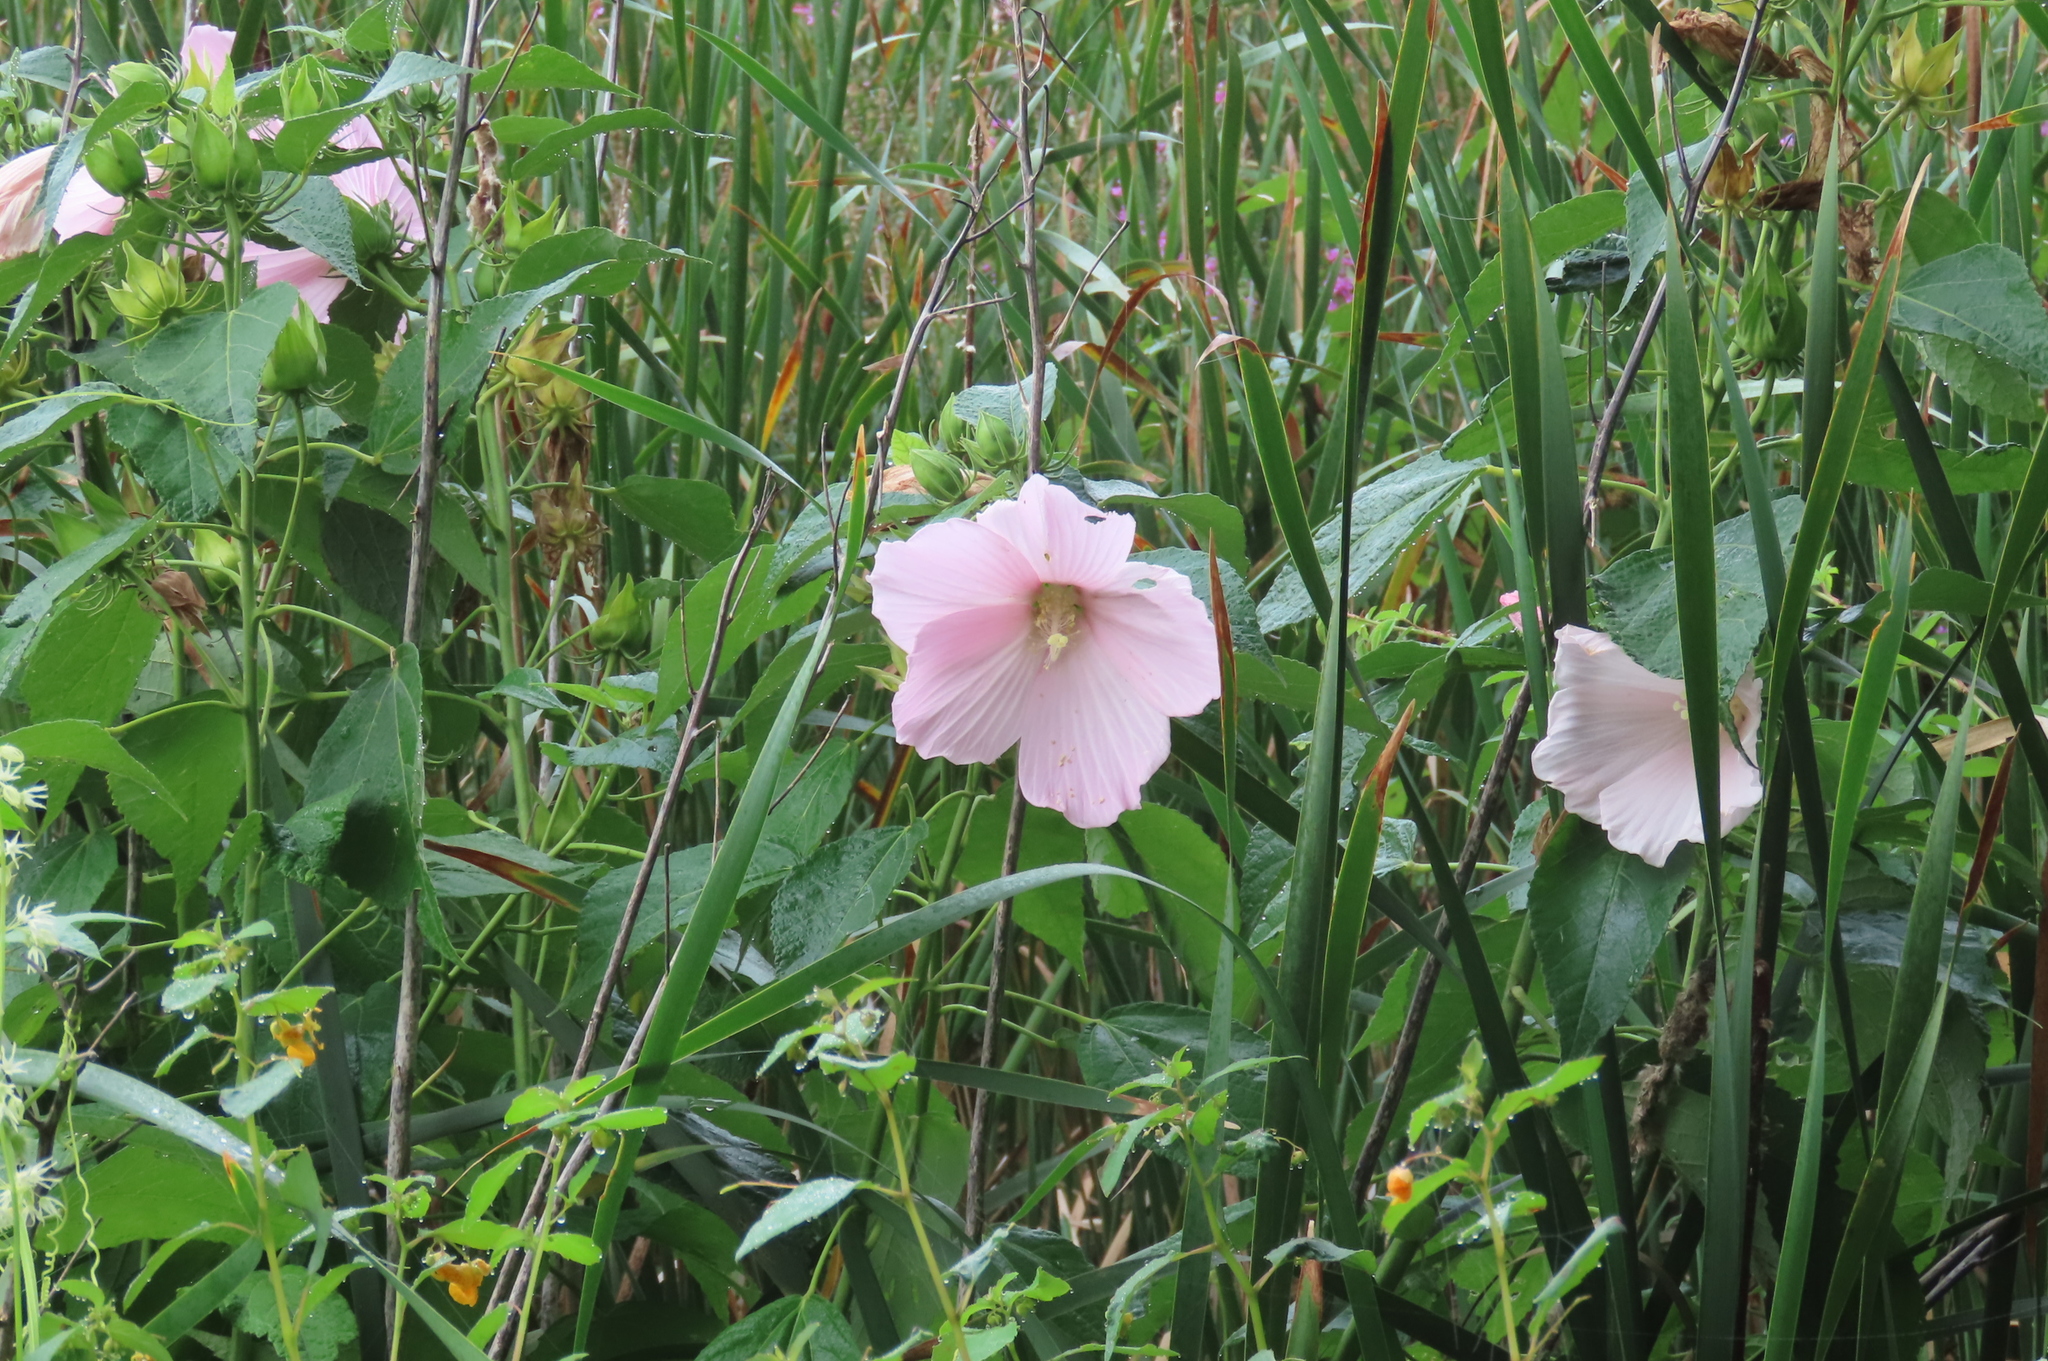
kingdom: Plantae
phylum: Tracheophyta
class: Magnoliopsida
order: Malvales
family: Malvaceae
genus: Hibiscus
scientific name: Hibiscus moscheutos
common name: Common rose-mallow
